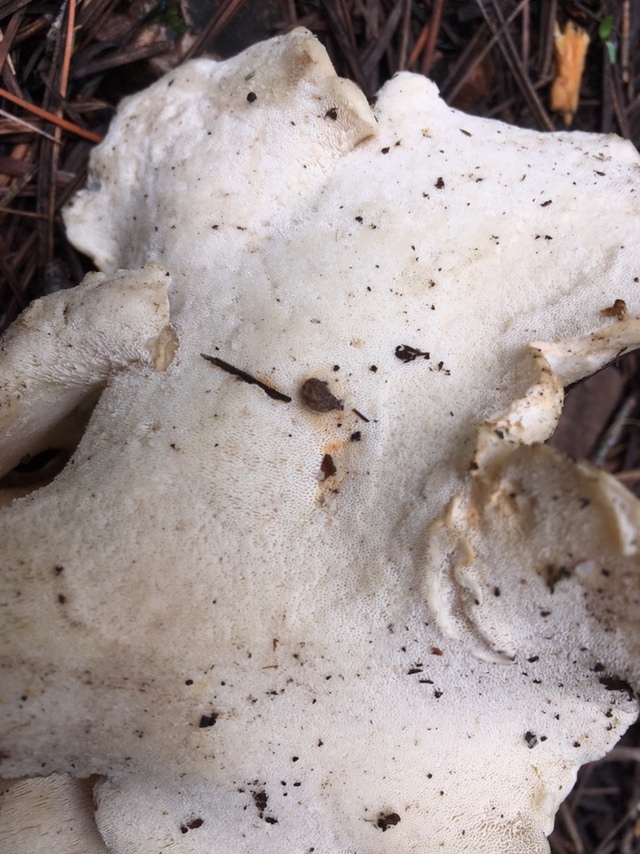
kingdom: Fungi
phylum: Basidiomycota
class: Agaricomycetes
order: Polyporales
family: Dacryobolaceae
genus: Jahnoporus
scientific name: Jahnoporus hirtus
